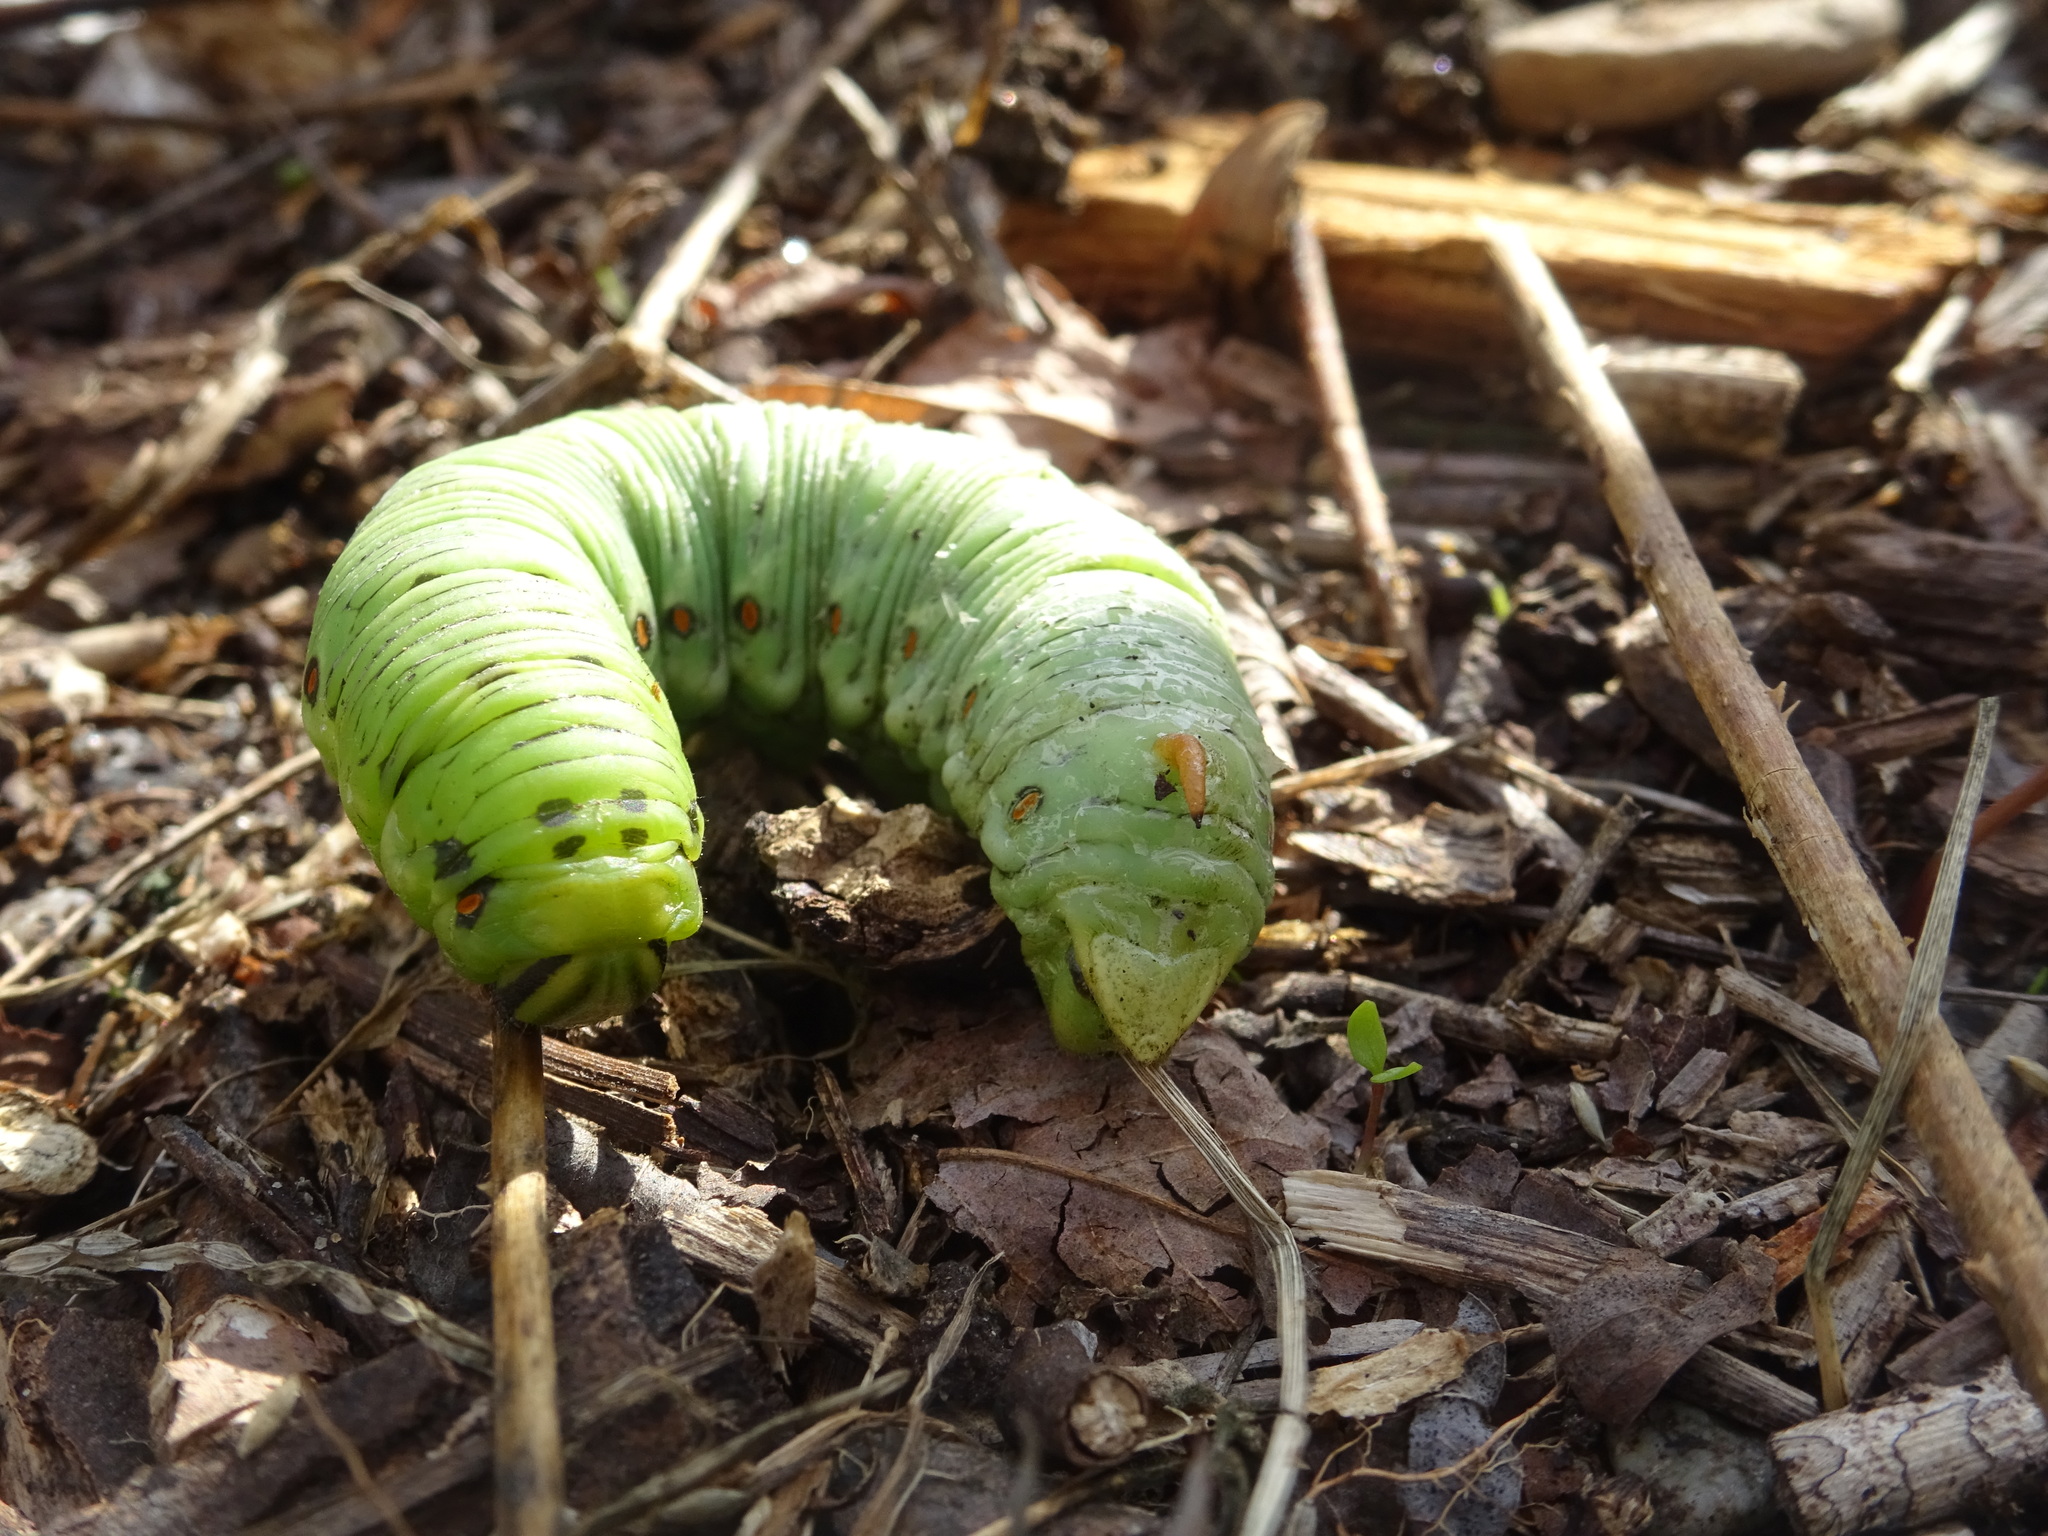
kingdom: Animalia
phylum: Arthropoda
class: Insecta
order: Lepidoptera
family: Sphingidae
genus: Agrius
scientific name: Agrius convolvuli
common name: Convolvulus hawkmoth
